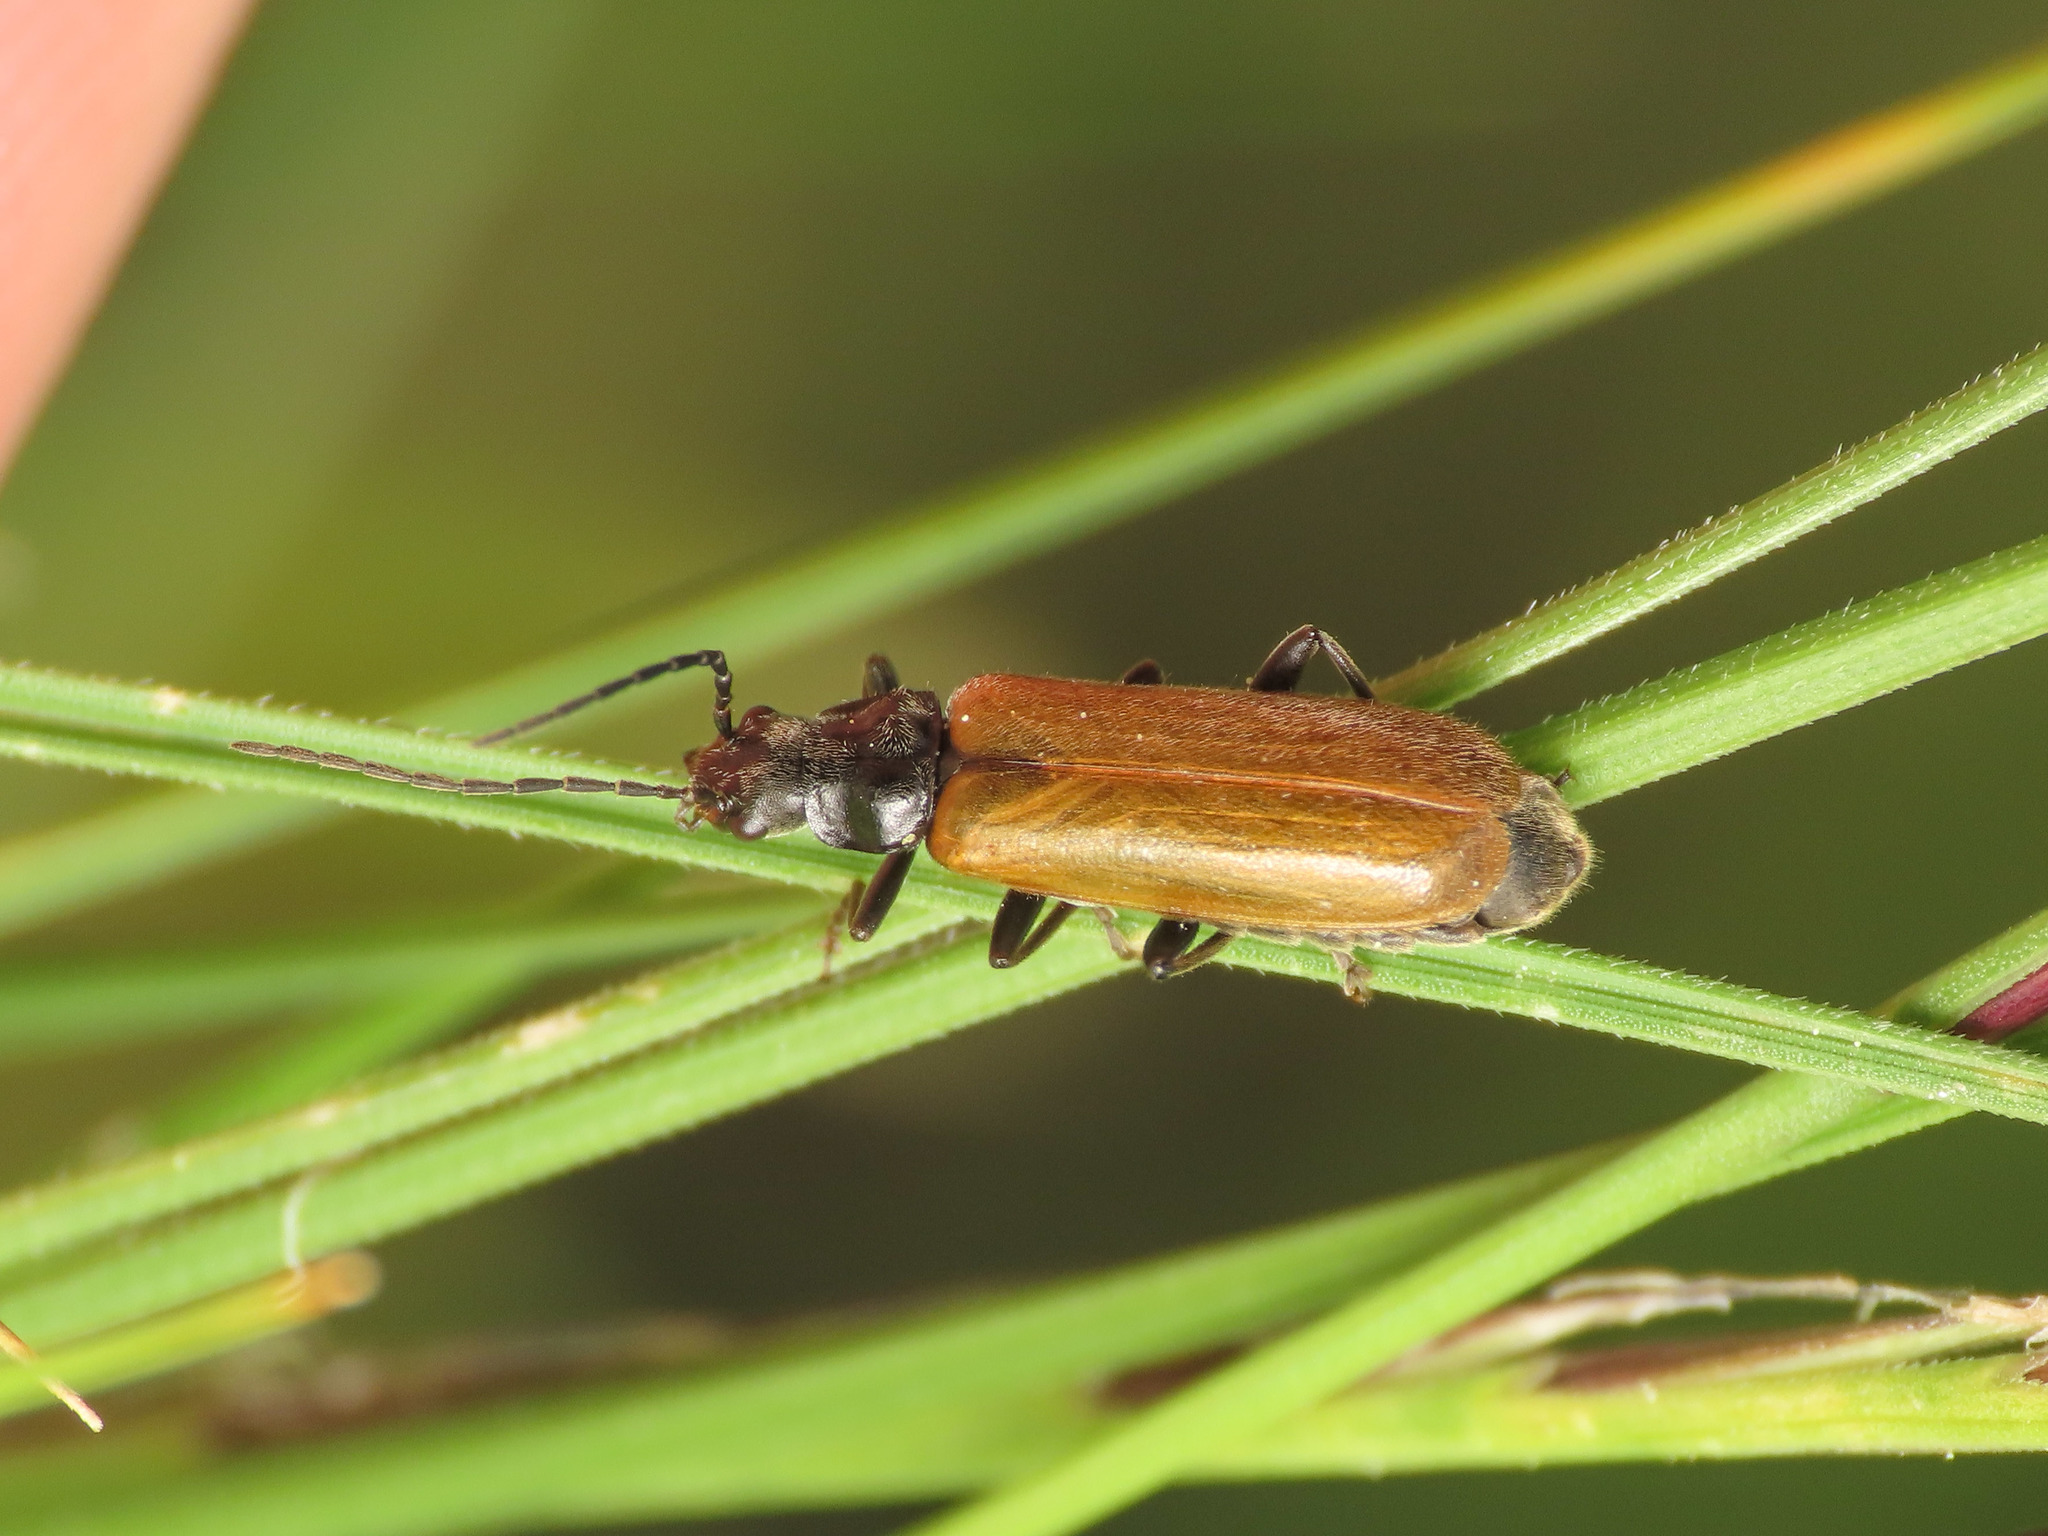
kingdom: Animalia
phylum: Arthropoda
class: Insecta
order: Coleoptera
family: Cantharidae
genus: Rhagonycha
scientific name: Rhagonycha nigripes
